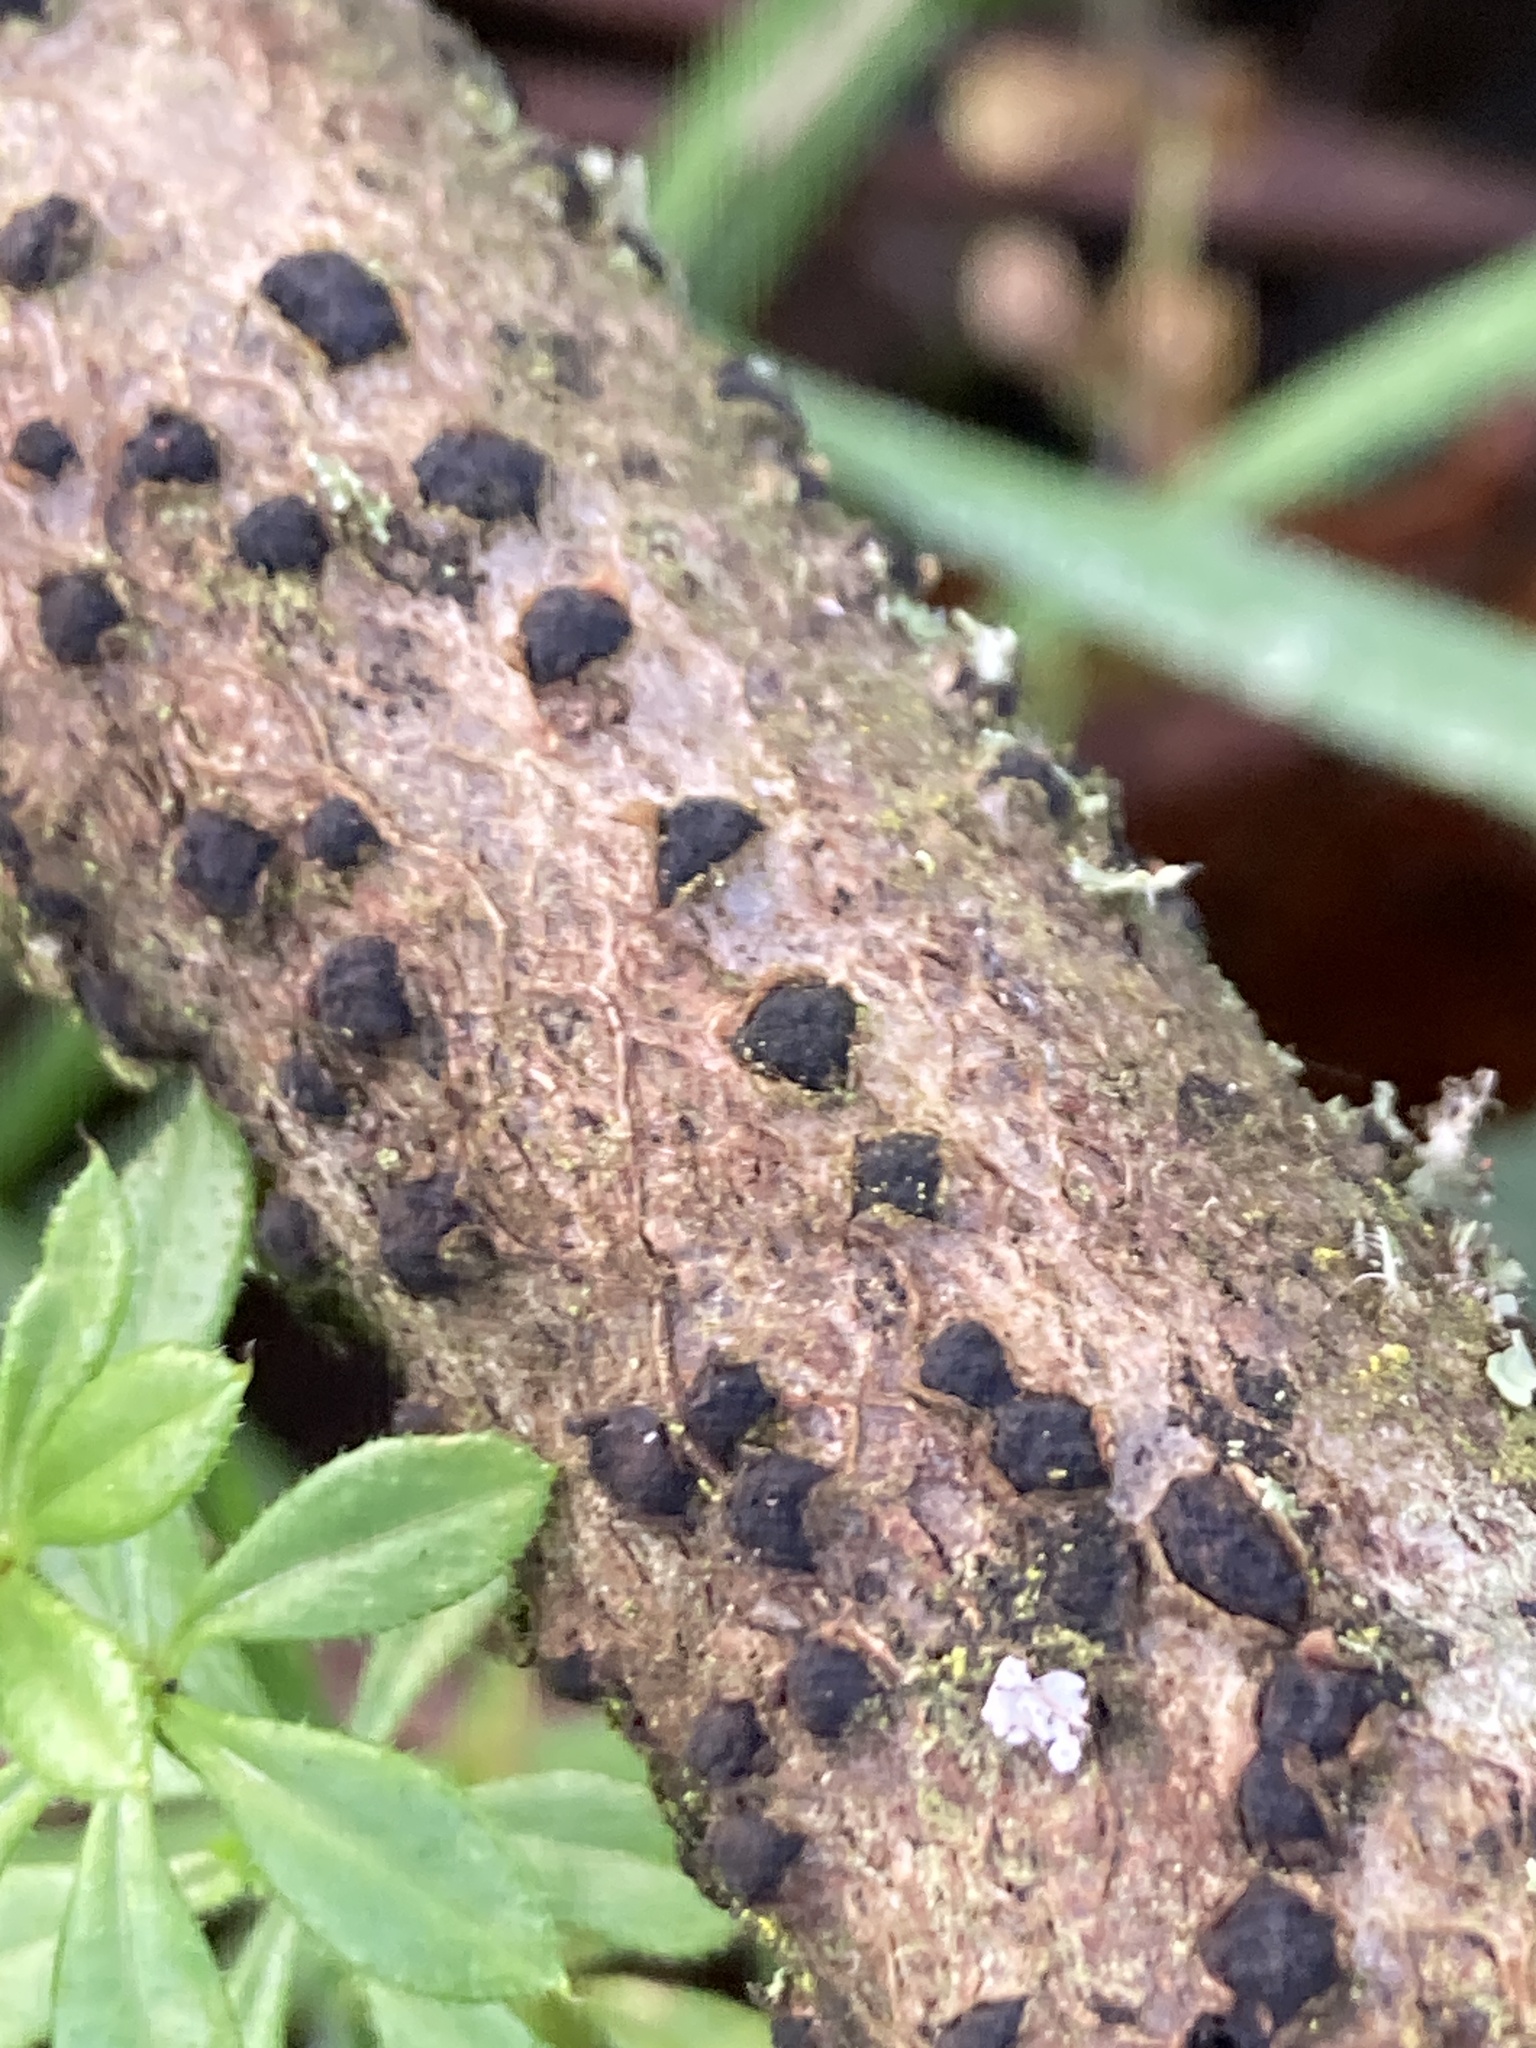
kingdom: Fungi
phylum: Ascomycota
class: Sordariomycetes
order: Xylariales
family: Hypoxylaceae
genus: Hypoxylon
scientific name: Hypoxylon fuscum
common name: Hazel woodwart
